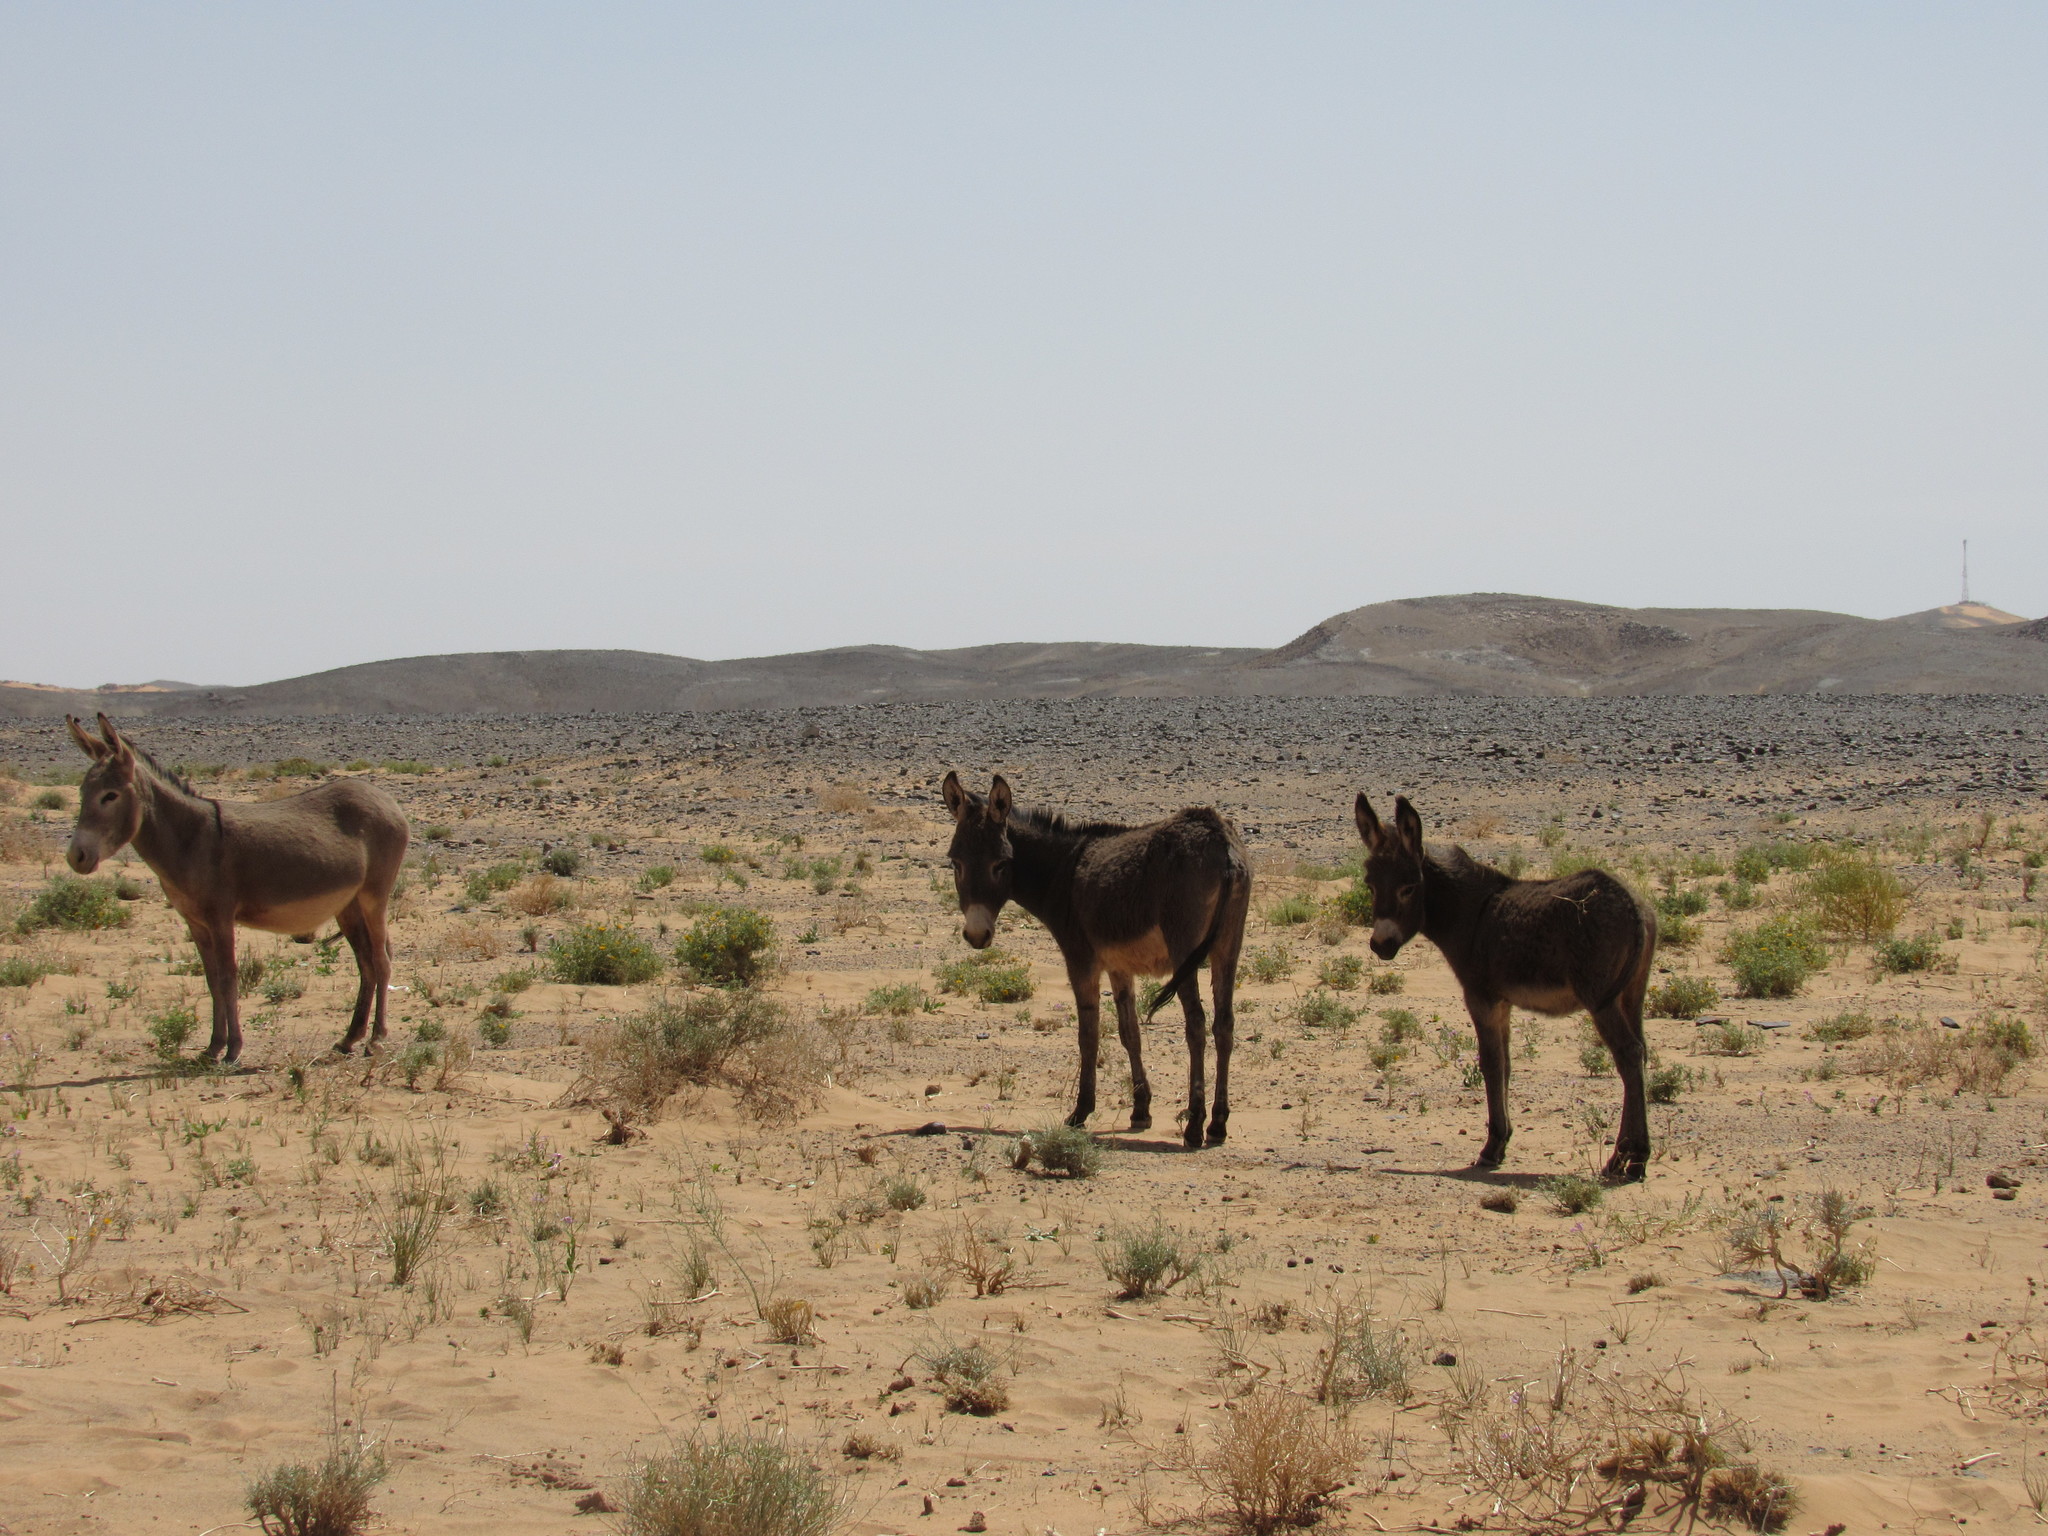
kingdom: Animalia
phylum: Chordata
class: Mammalia
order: Perissodactyla
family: Equidae
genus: Equus
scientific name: Equus asinus
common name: Ass
